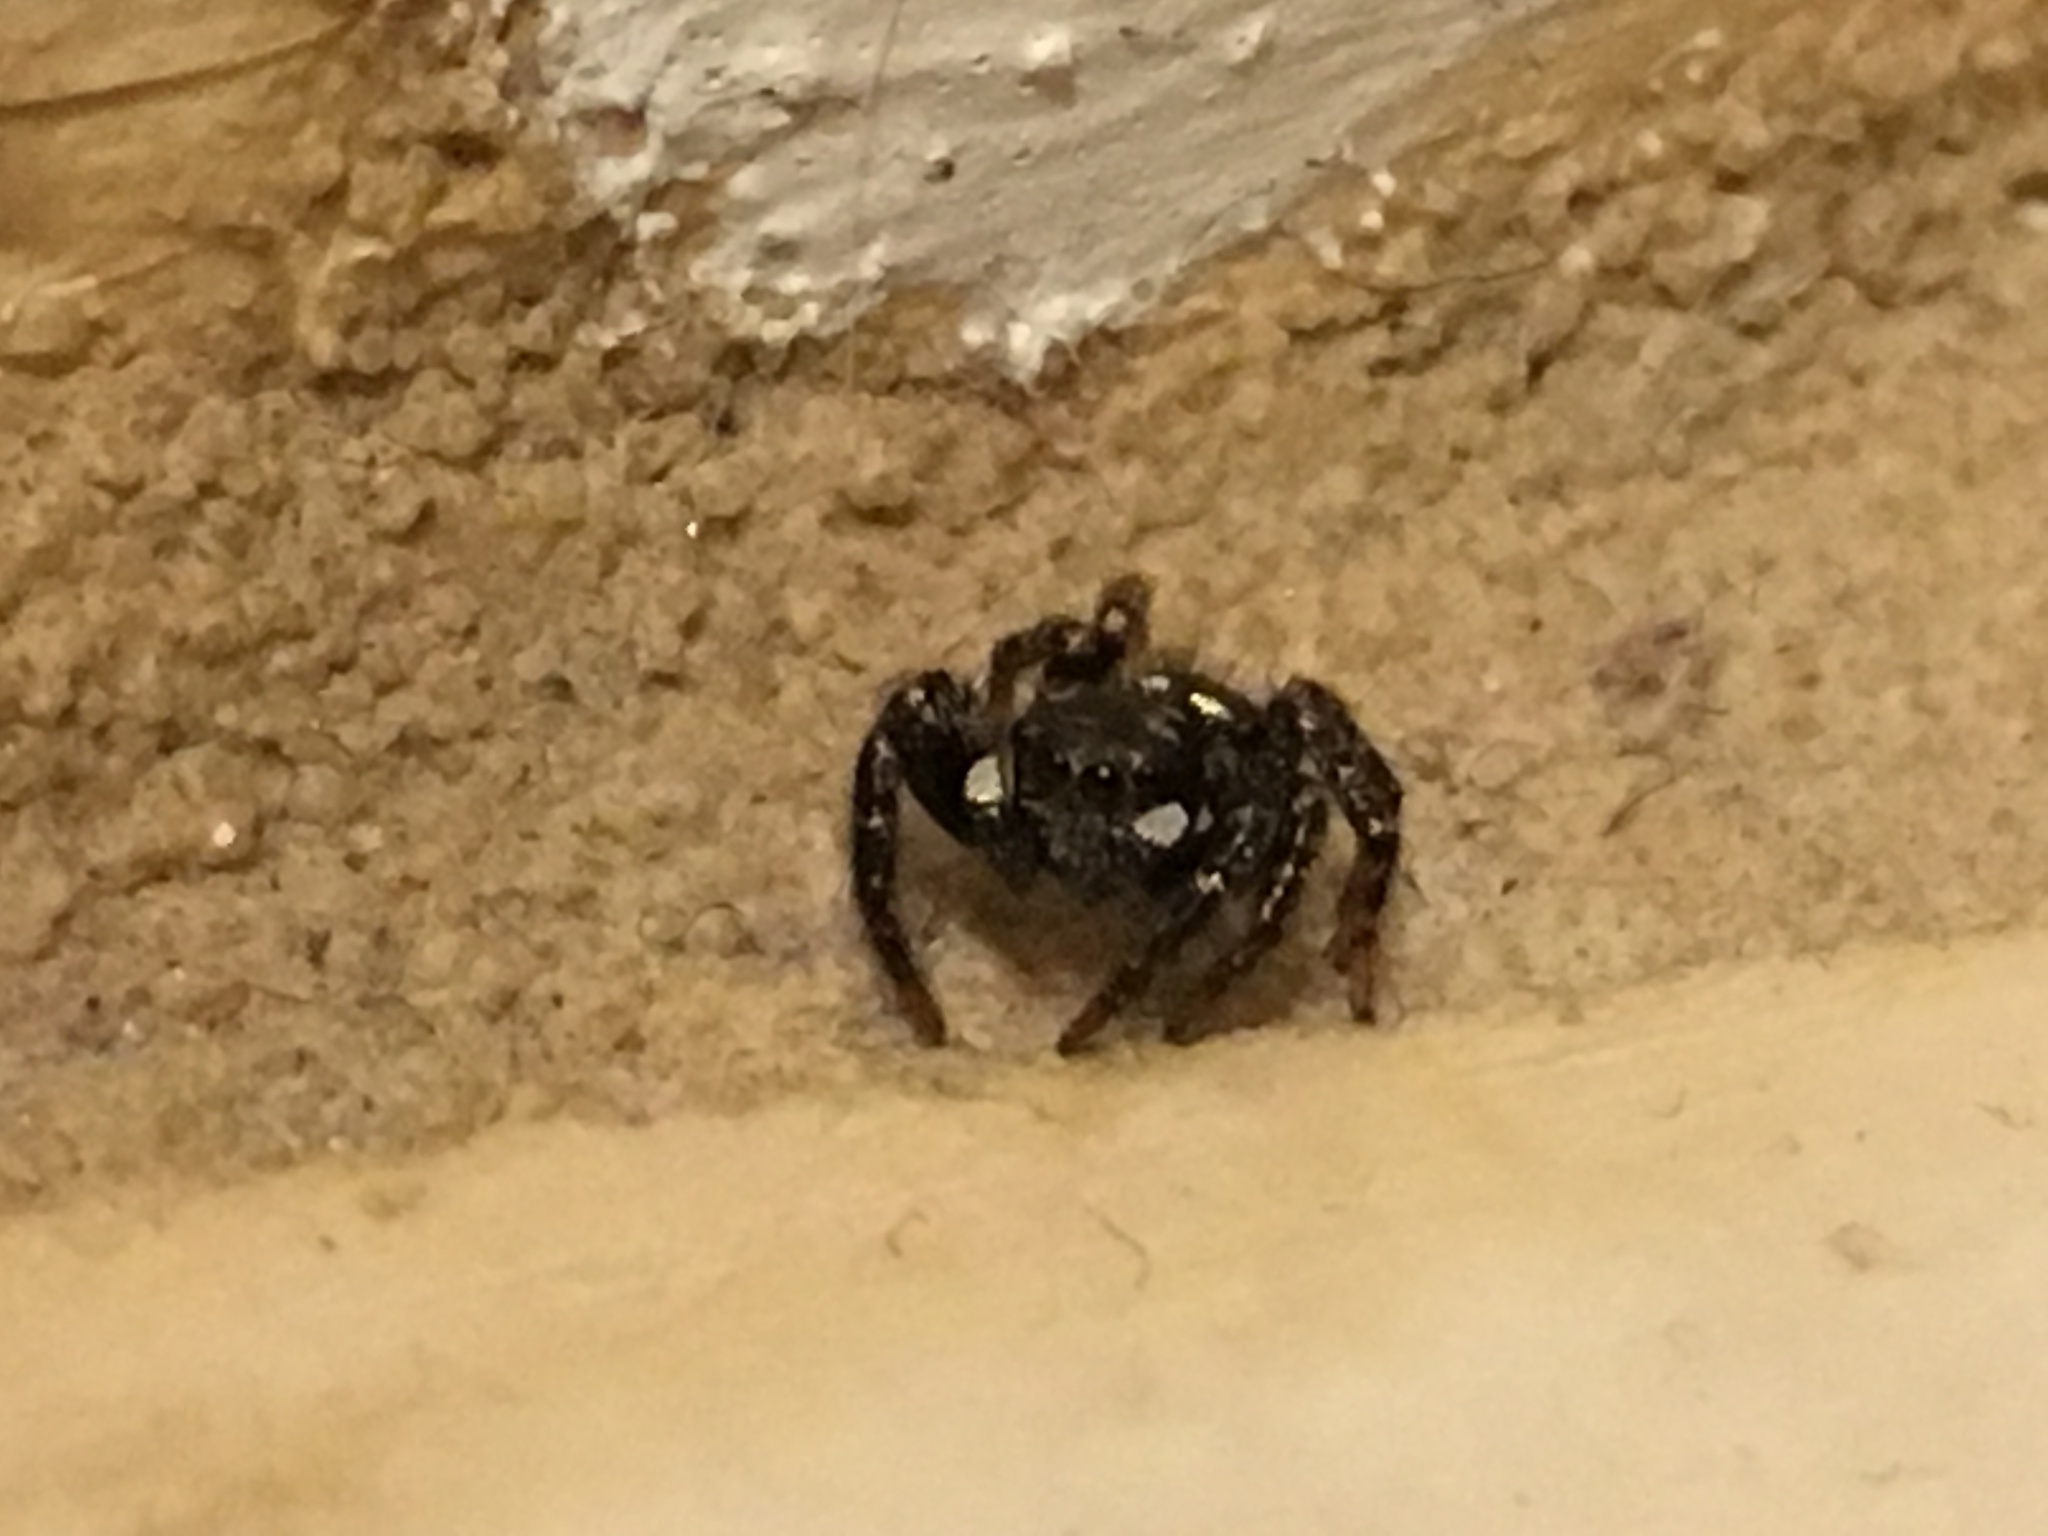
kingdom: Animalia
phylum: Arthropoda
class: Arachnida
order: Araneae
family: Salticidae
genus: Anasaitis
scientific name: Anasaitis canosa
